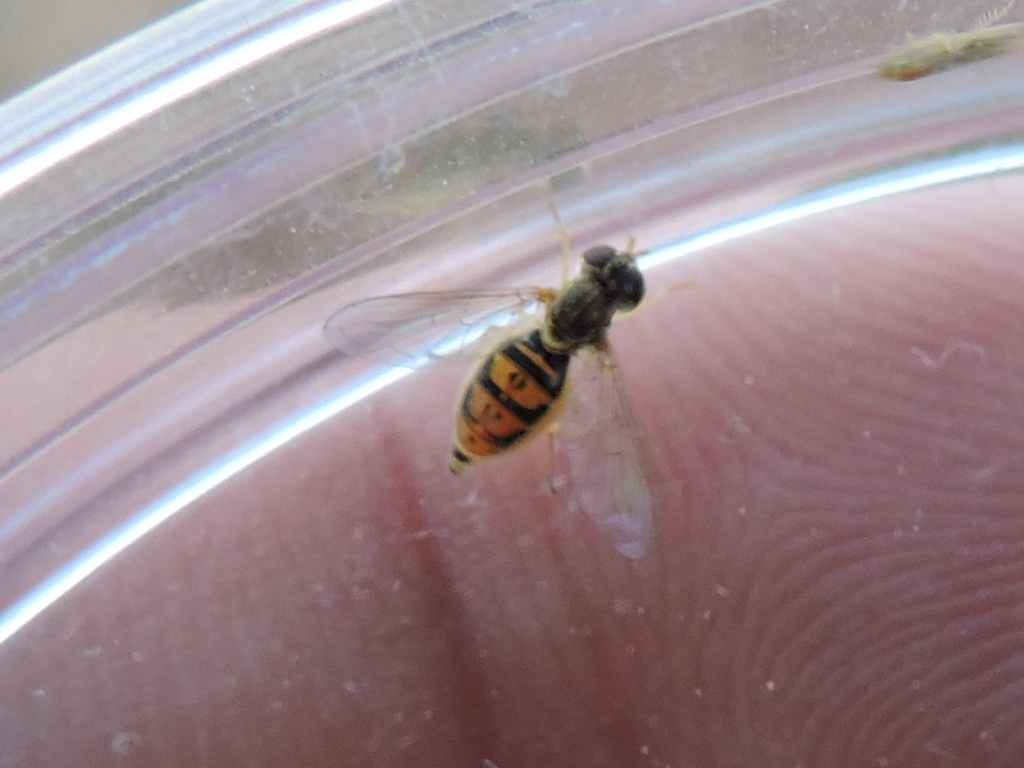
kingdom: Animalia
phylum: Arthropoda
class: Insecta
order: Diptera
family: Syrphidae
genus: Toxomerus
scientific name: Toxomerus marginatus
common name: Syrphid fly
